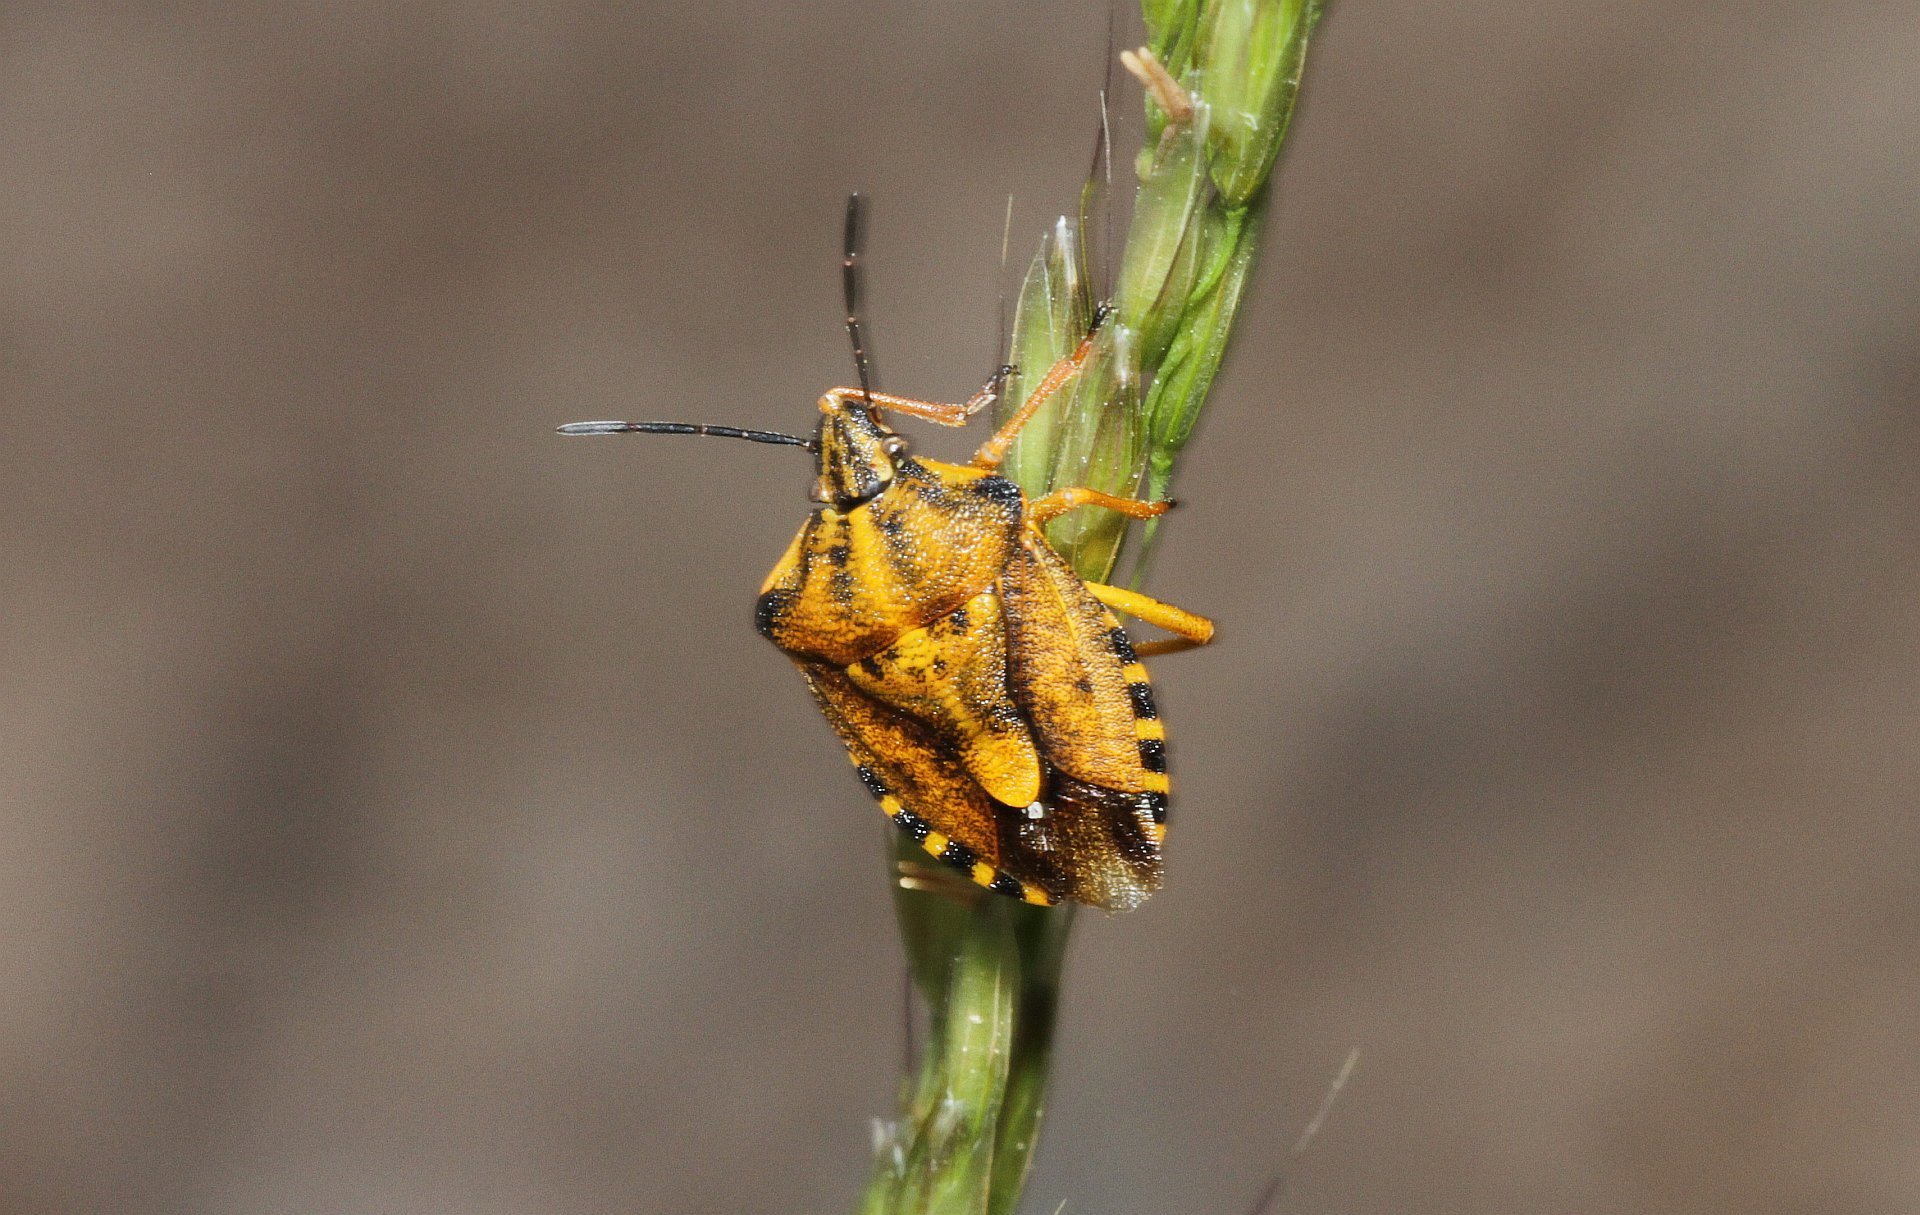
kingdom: Animalia
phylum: Arthropoda
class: Insecta
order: Hemiptera
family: Pentatomidae
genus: Carpocoris
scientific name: Carpocoris purpureipennis
